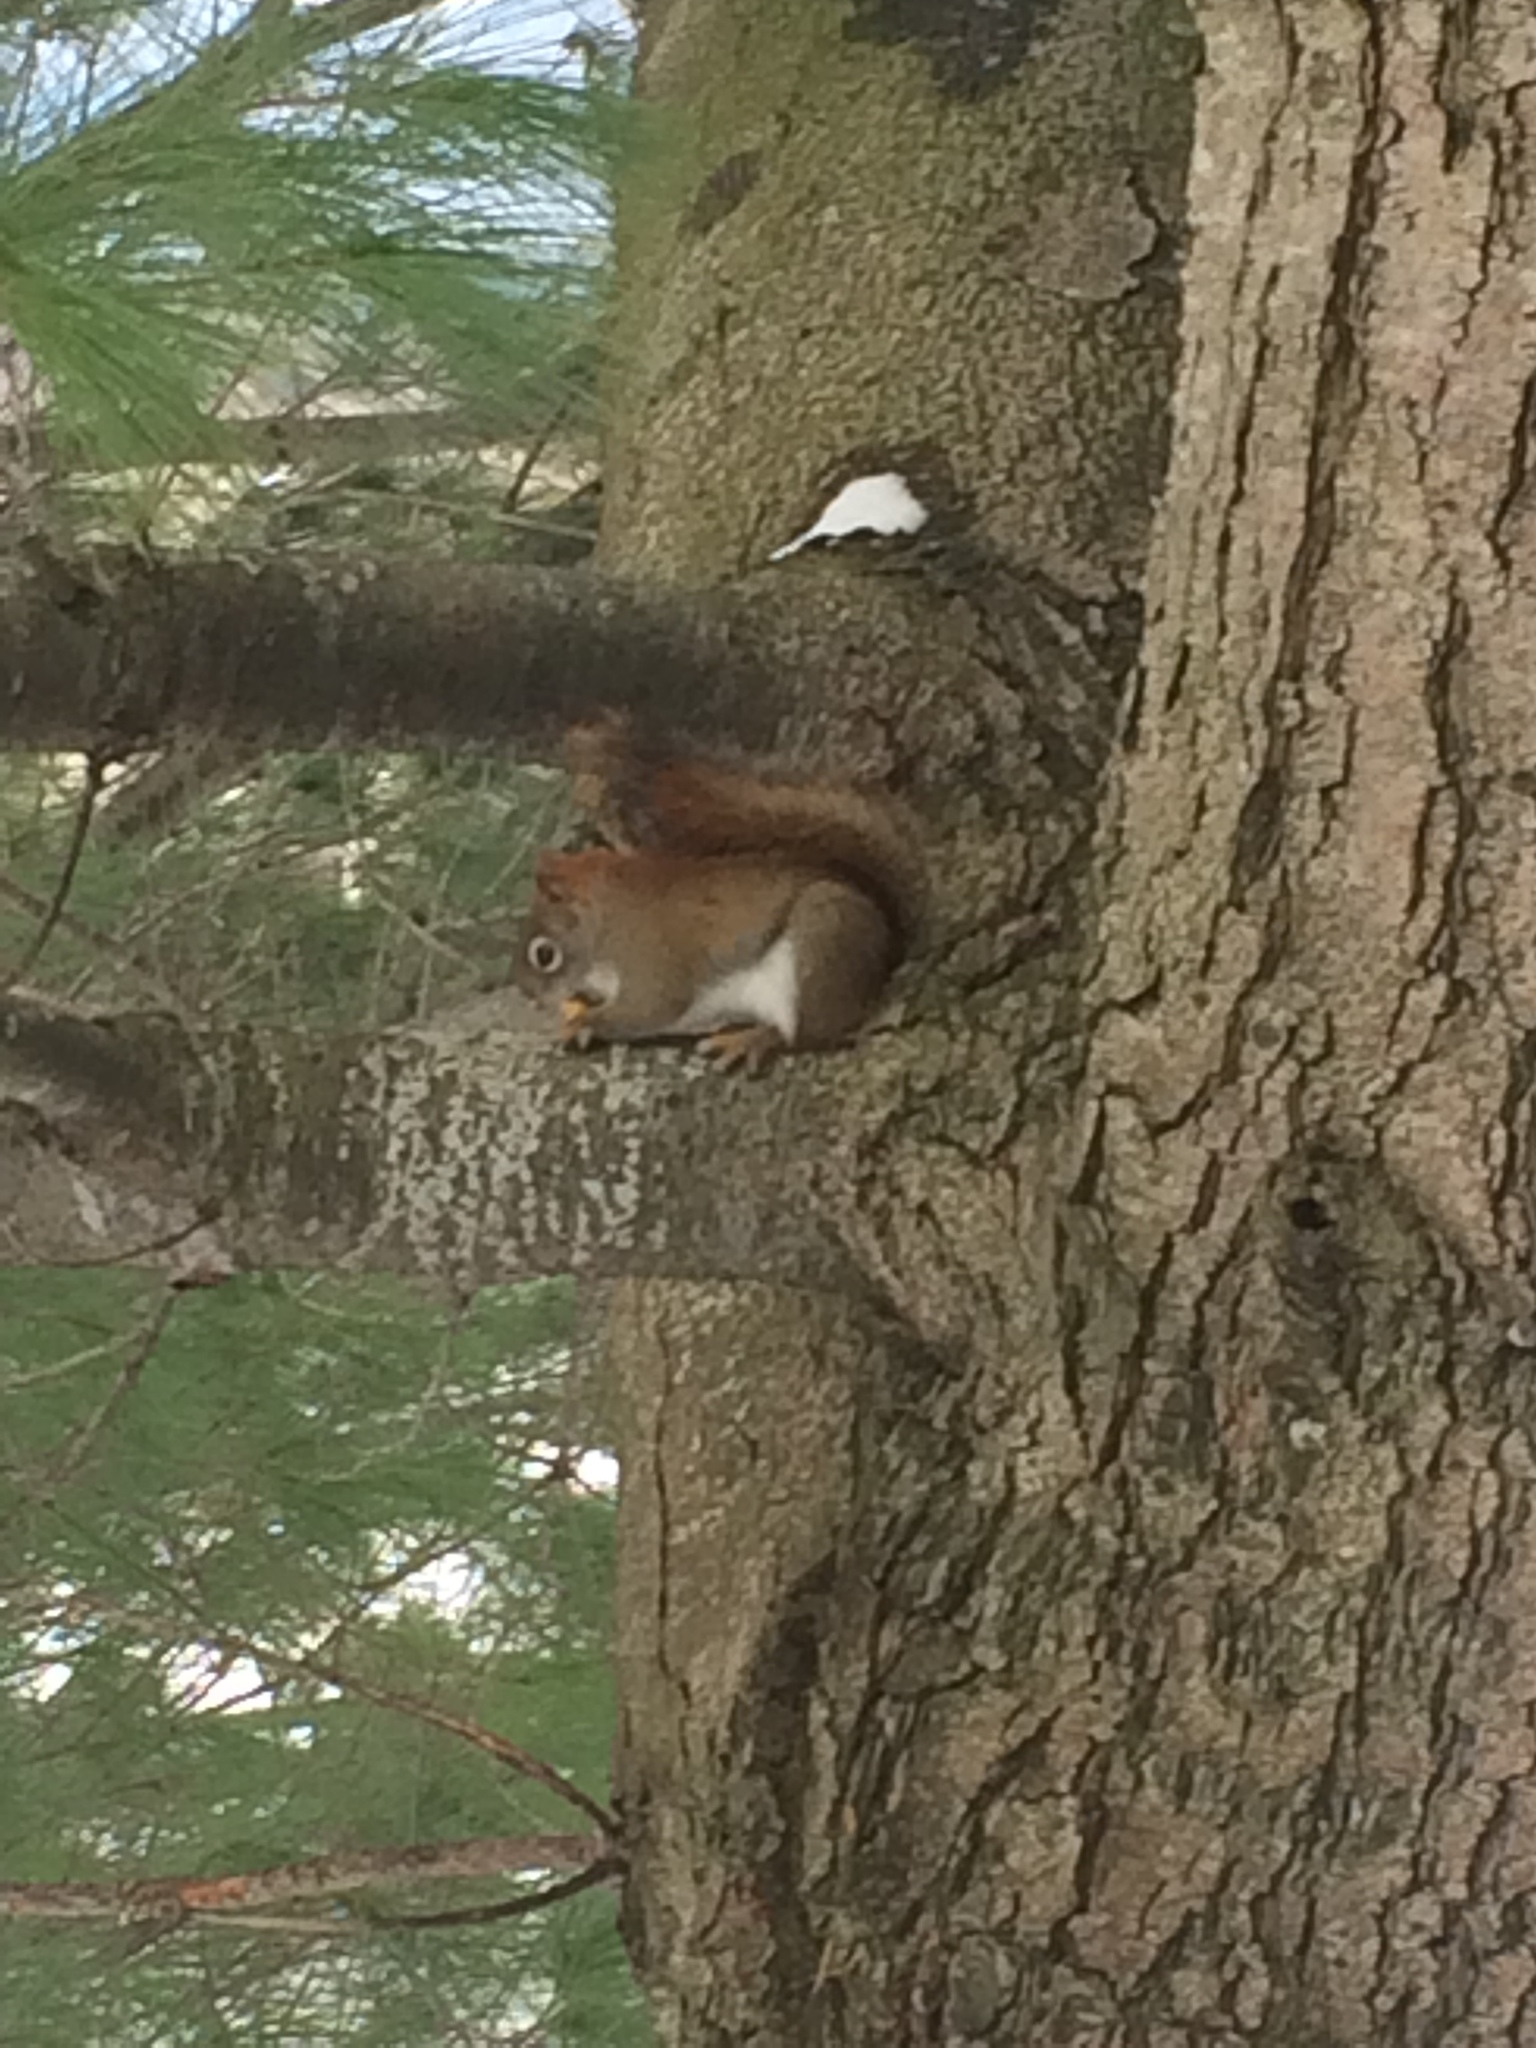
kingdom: Animalia
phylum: Chordata
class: Mammalia
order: Rodentia
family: Sciuridae
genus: Tamiasciurus
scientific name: Tamiasciurus hudsonicus
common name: Red squirrel
